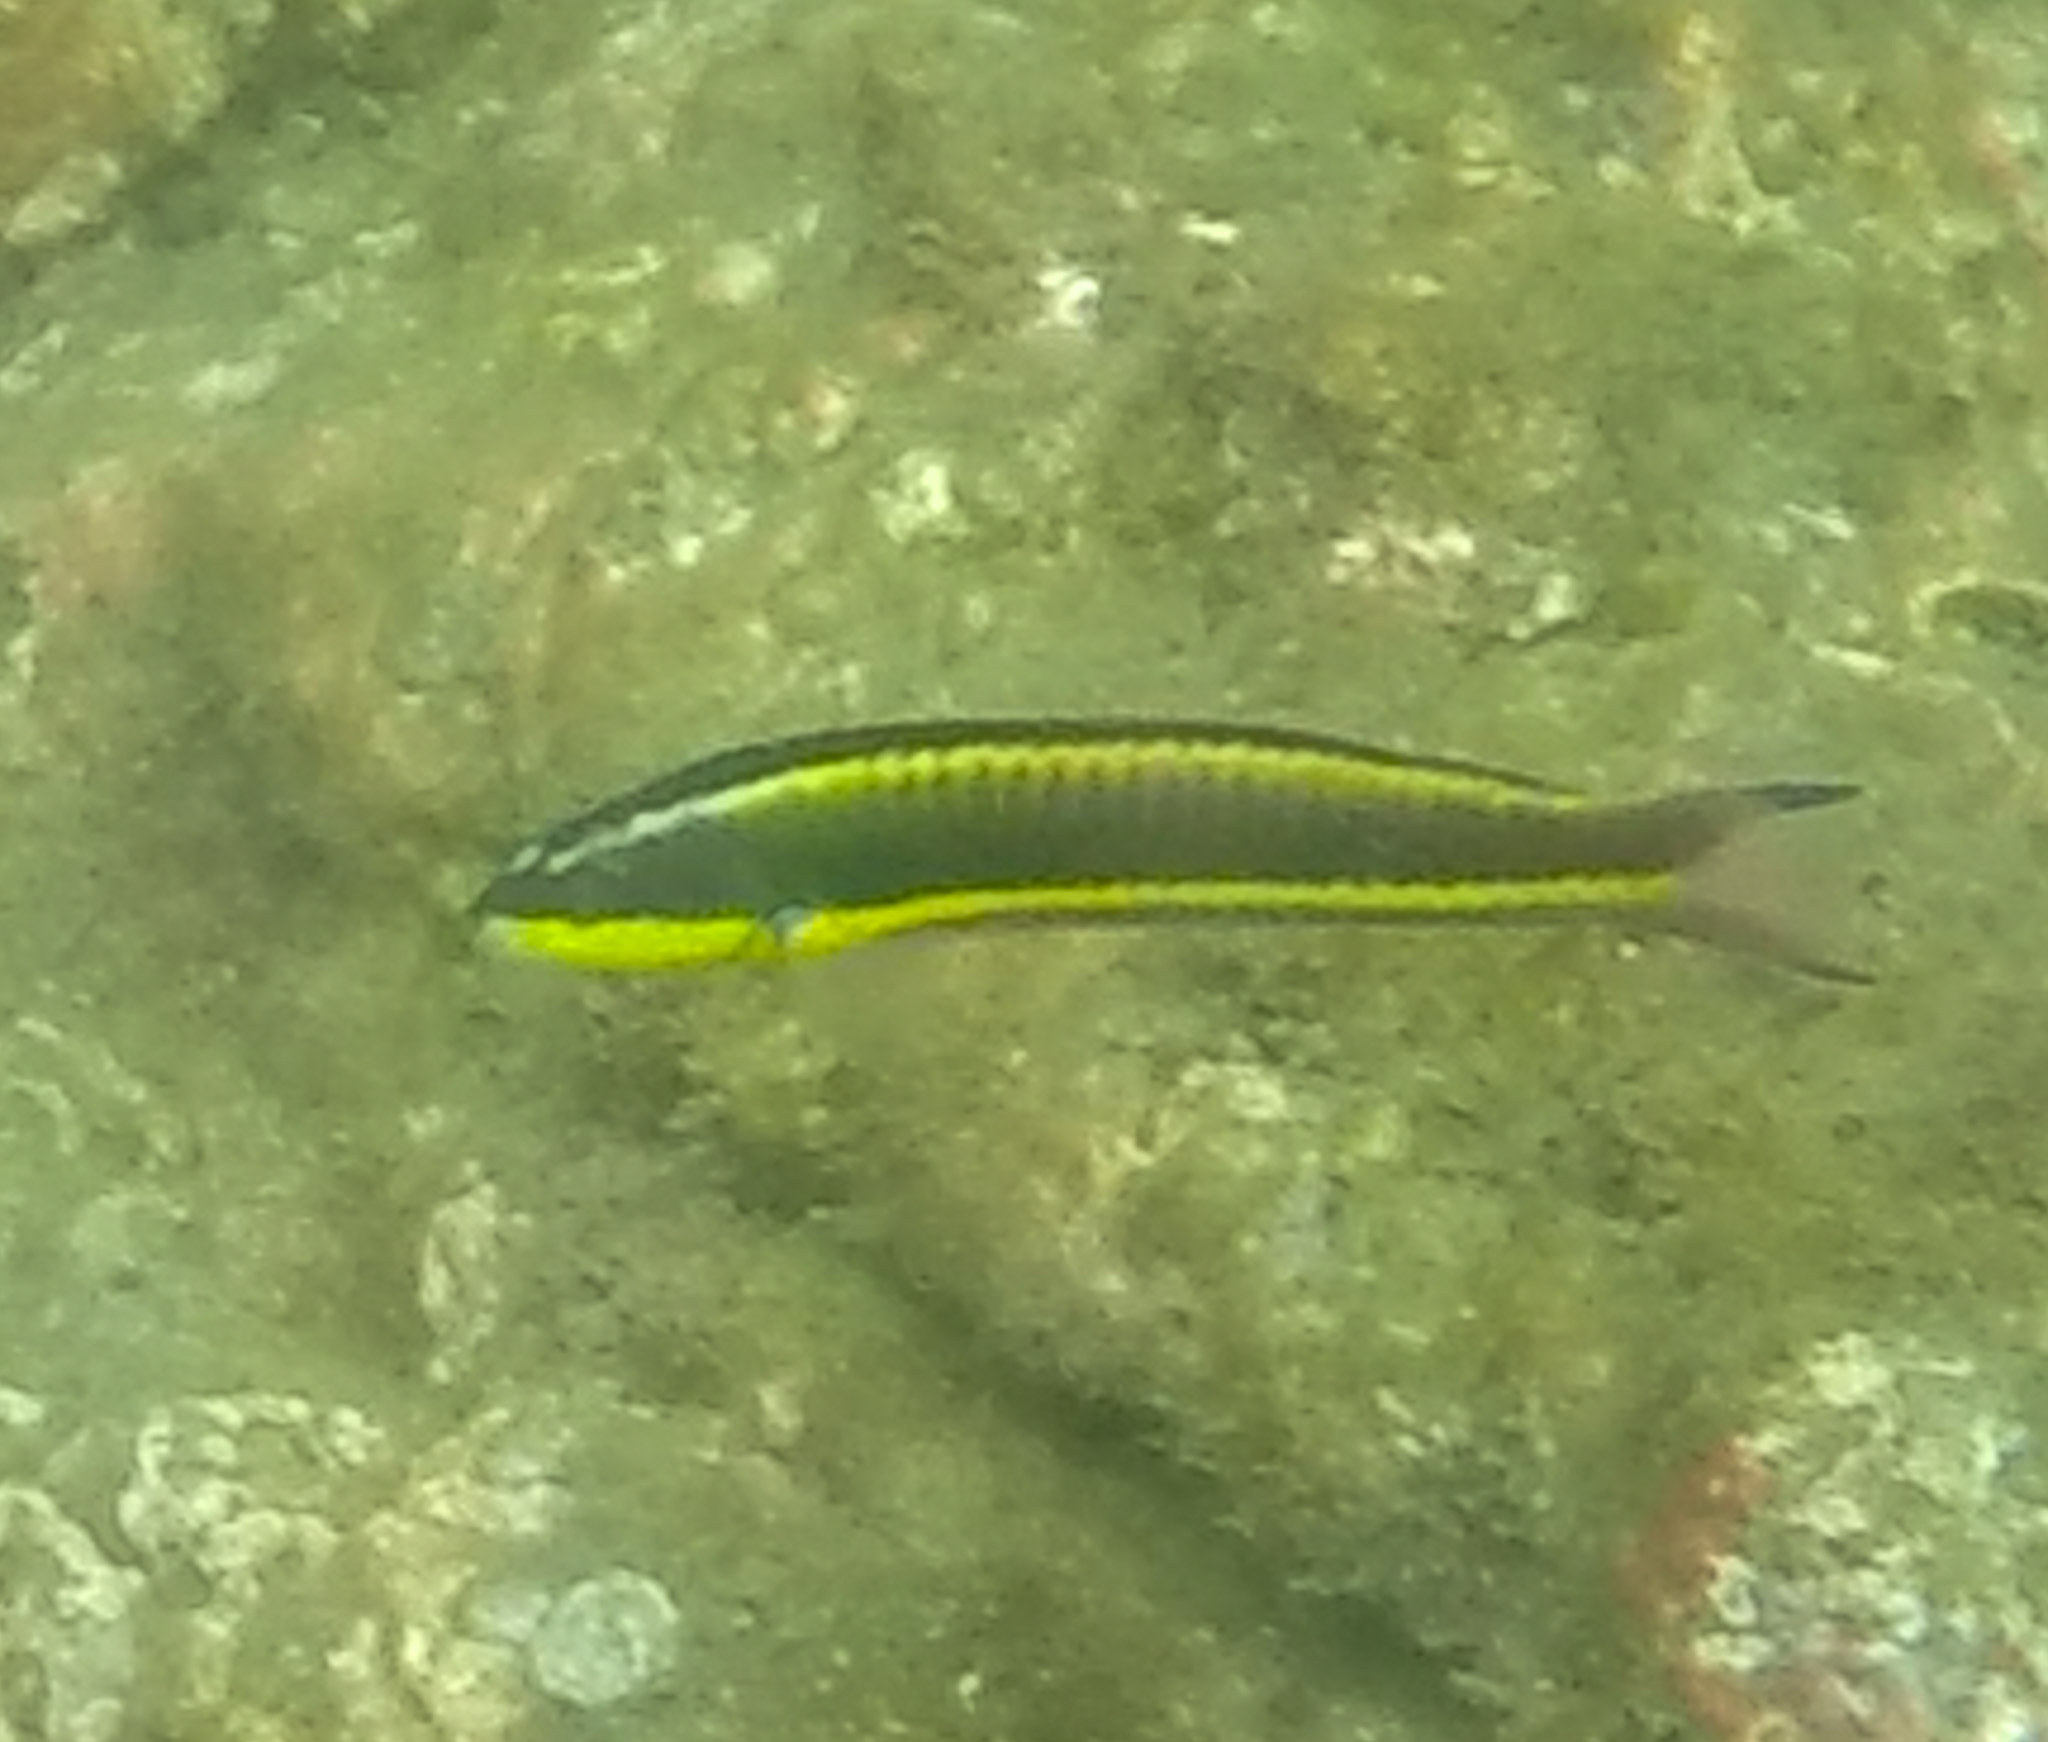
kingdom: Animalia
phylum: Chordata
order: Perciformes
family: Labridae
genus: Thalassoma
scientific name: Thalassoma lucasanum
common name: Cortez rainbow wrasse
